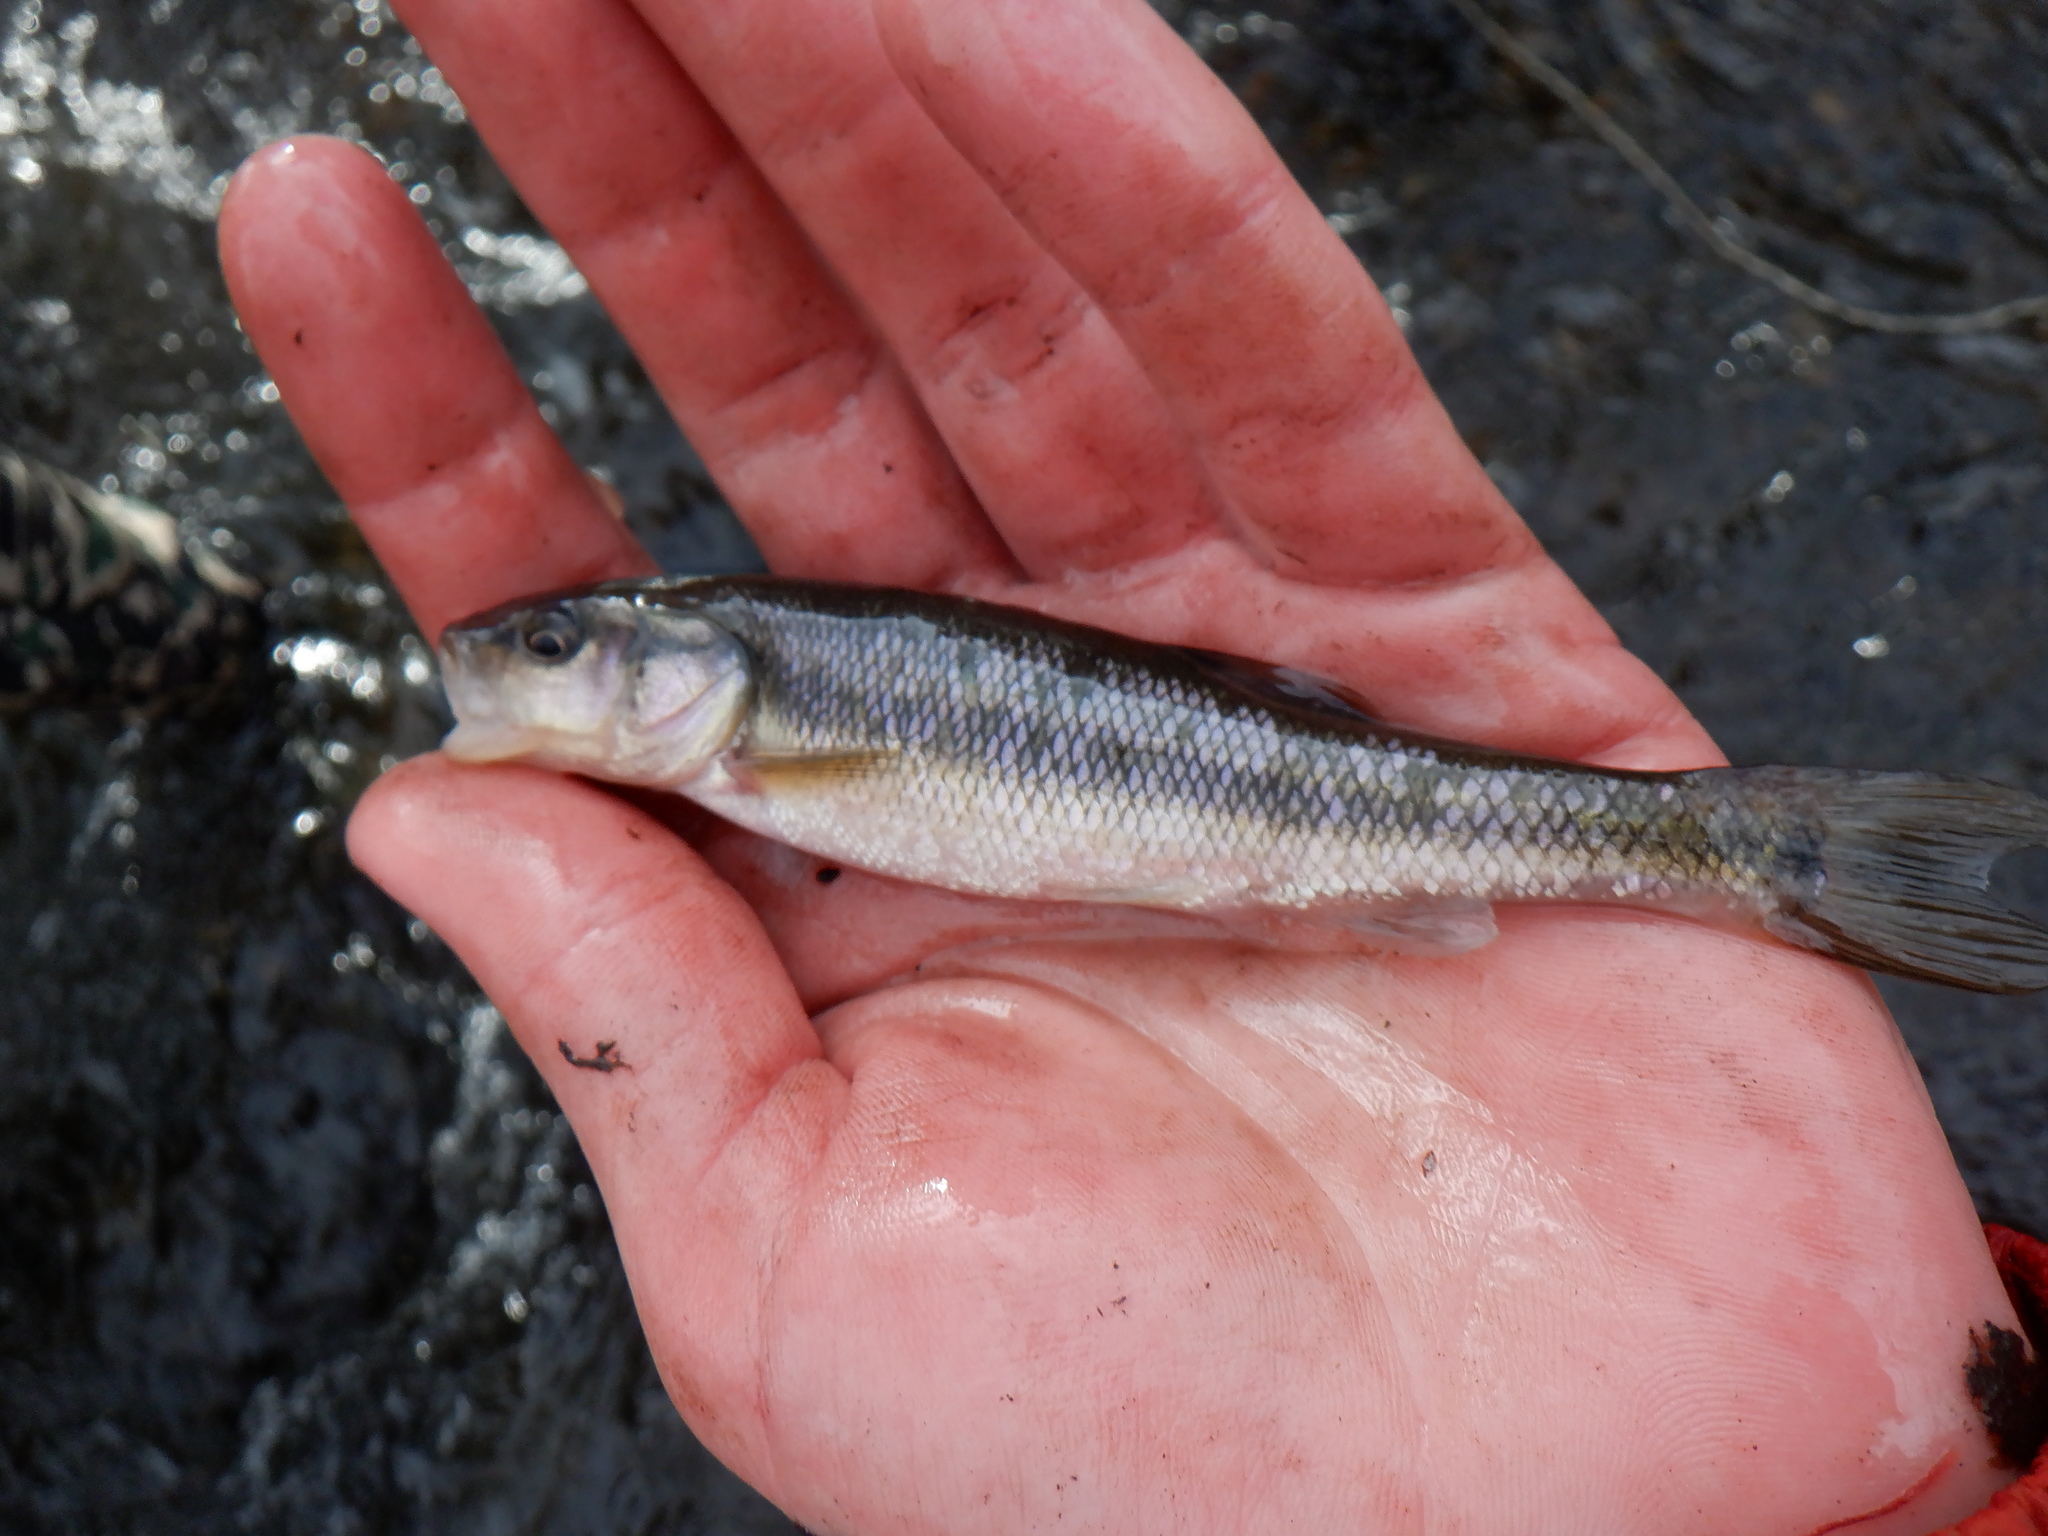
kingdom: Animalia
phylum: Chordata
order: Cypriniformes
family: Cyprinidae
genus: Semotilus
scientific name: Semotilus atromaculatus
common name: Creek chub
